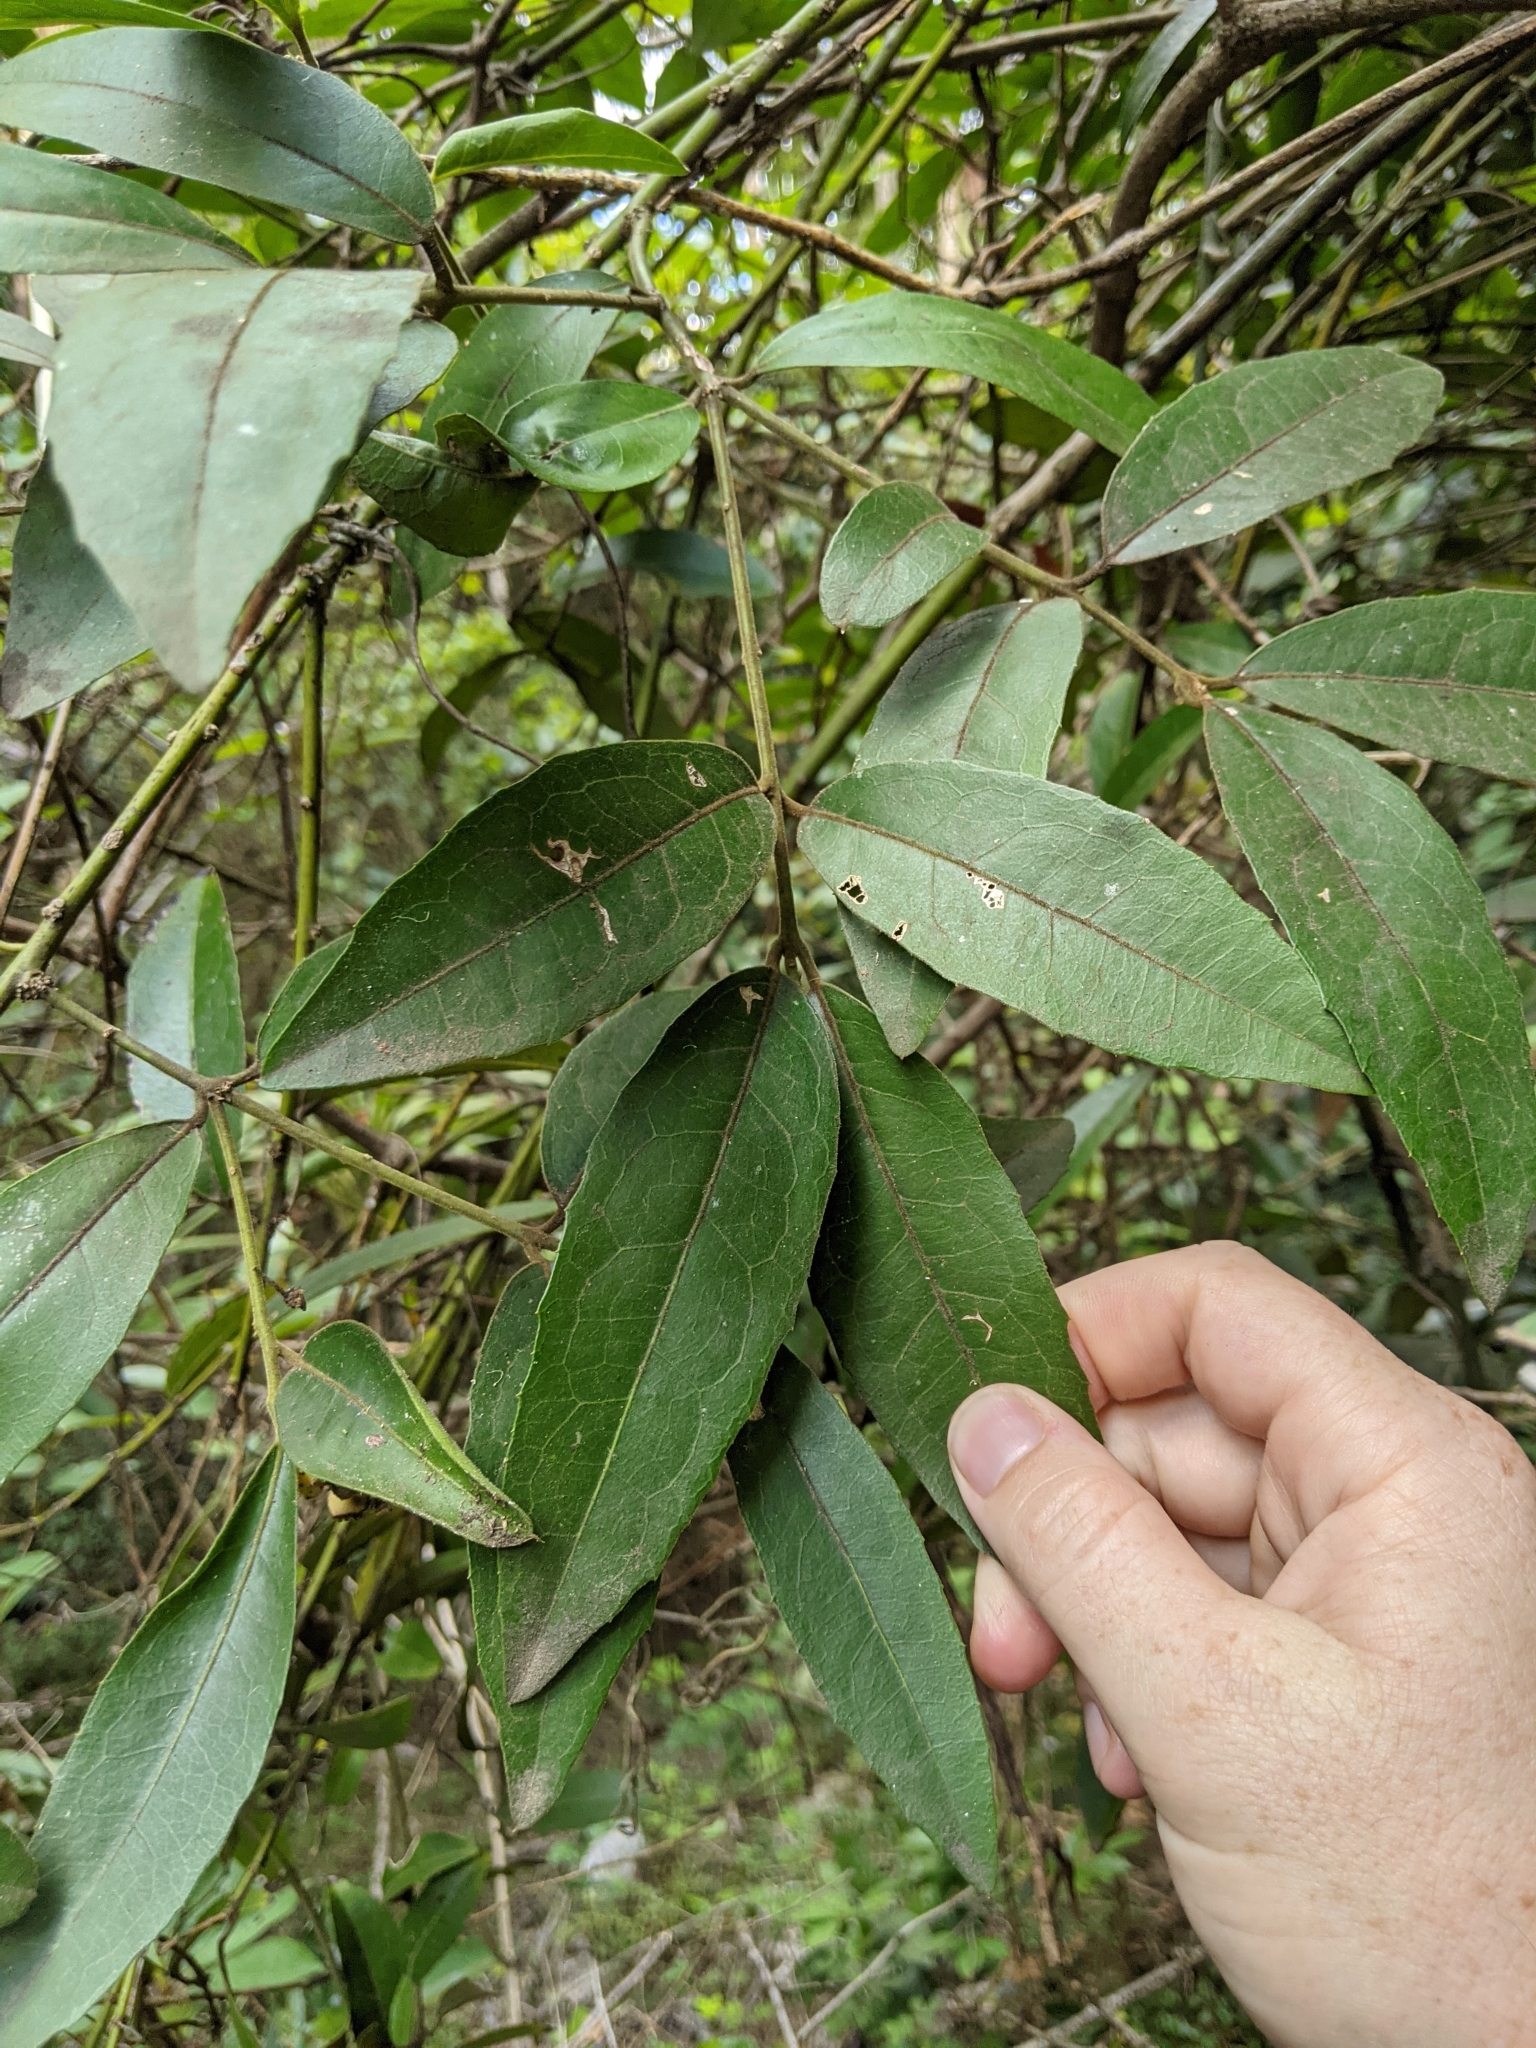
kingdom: Plantae
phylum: Tracheophyta
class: Magnoliopsida
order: Laurales
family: Monimiaceae
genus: Wilkiea
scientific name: Wilkiea hugeliana
